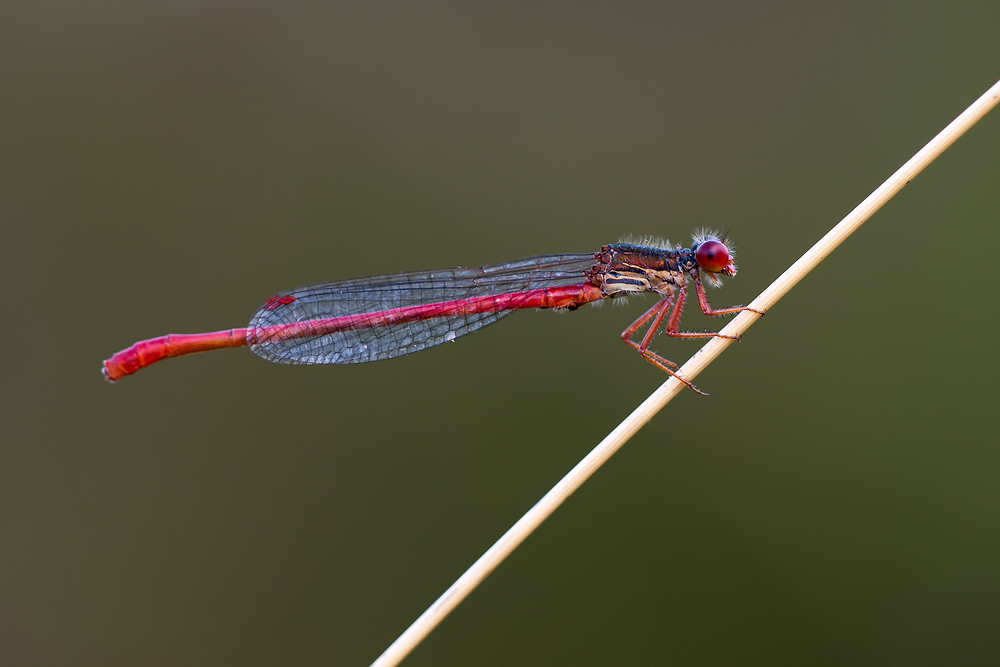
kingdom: Animalia
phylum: Arthropoda
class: Insecta
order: Odonata
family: Coenagrionidae
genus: Ceriagrion
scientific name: Ceriagrion tenellum
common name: Small red damselfly
